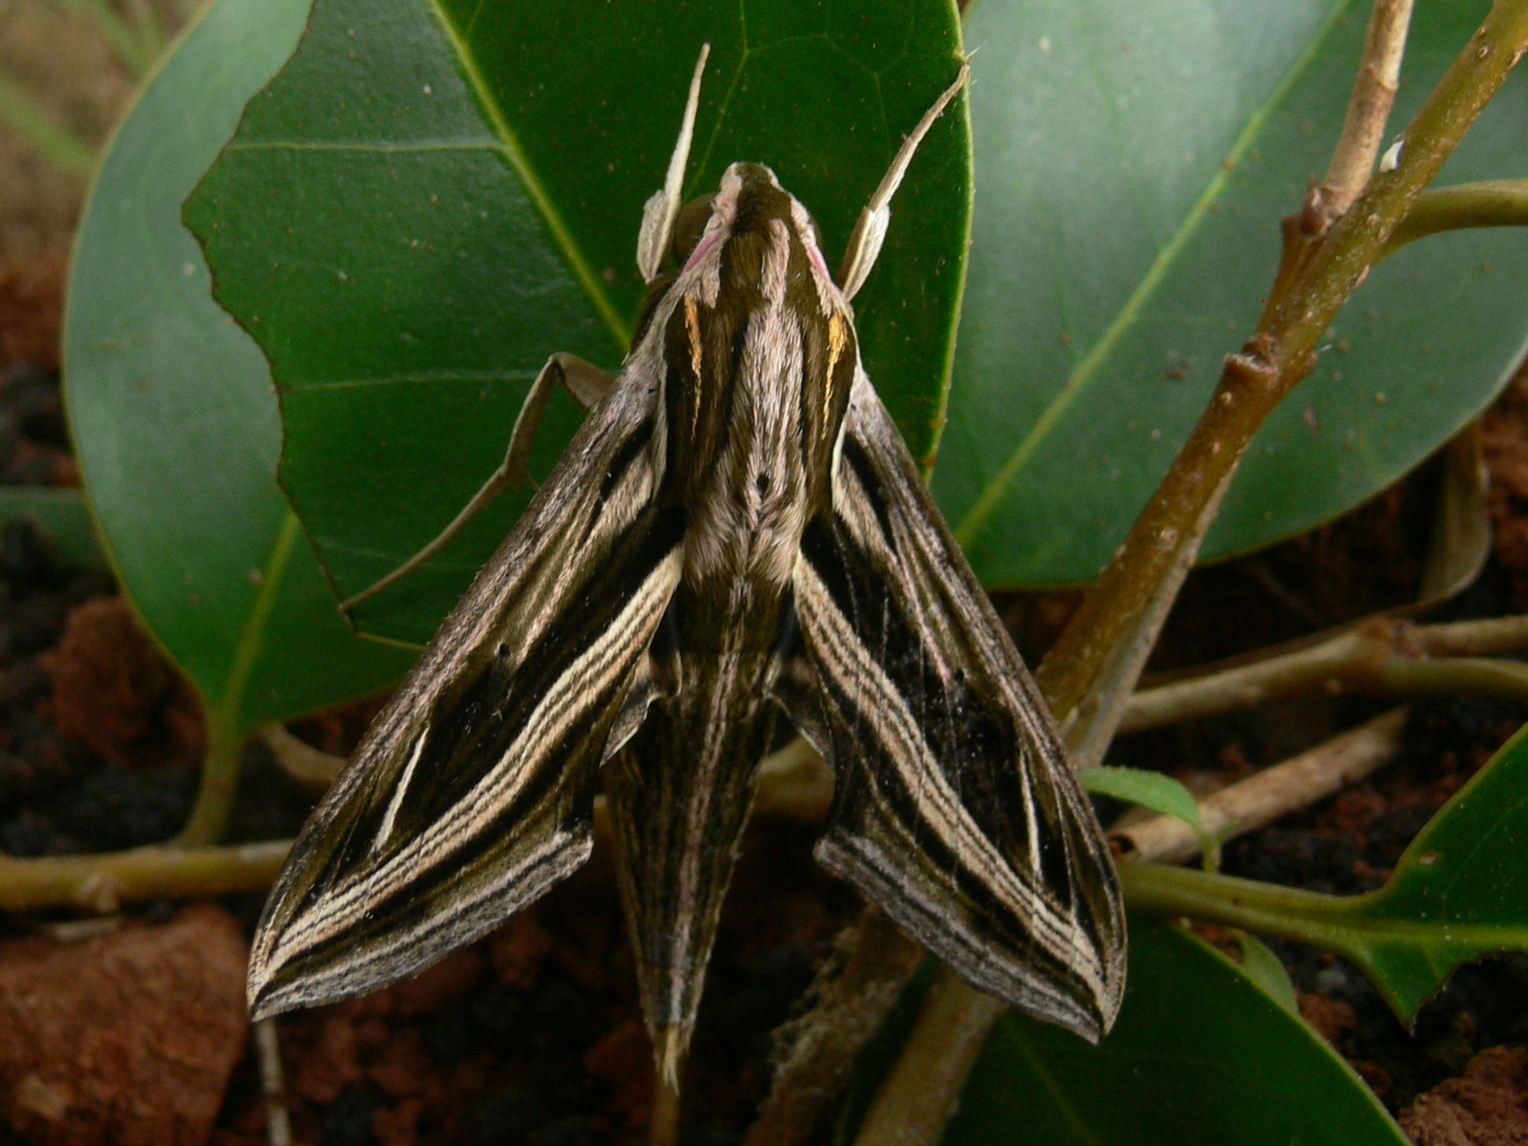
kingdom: Animalia
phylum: Arthropoda
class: Insecta
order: Lepidoptera
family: Sphingidae
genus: Hippotion
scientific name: Hippotion geryon
